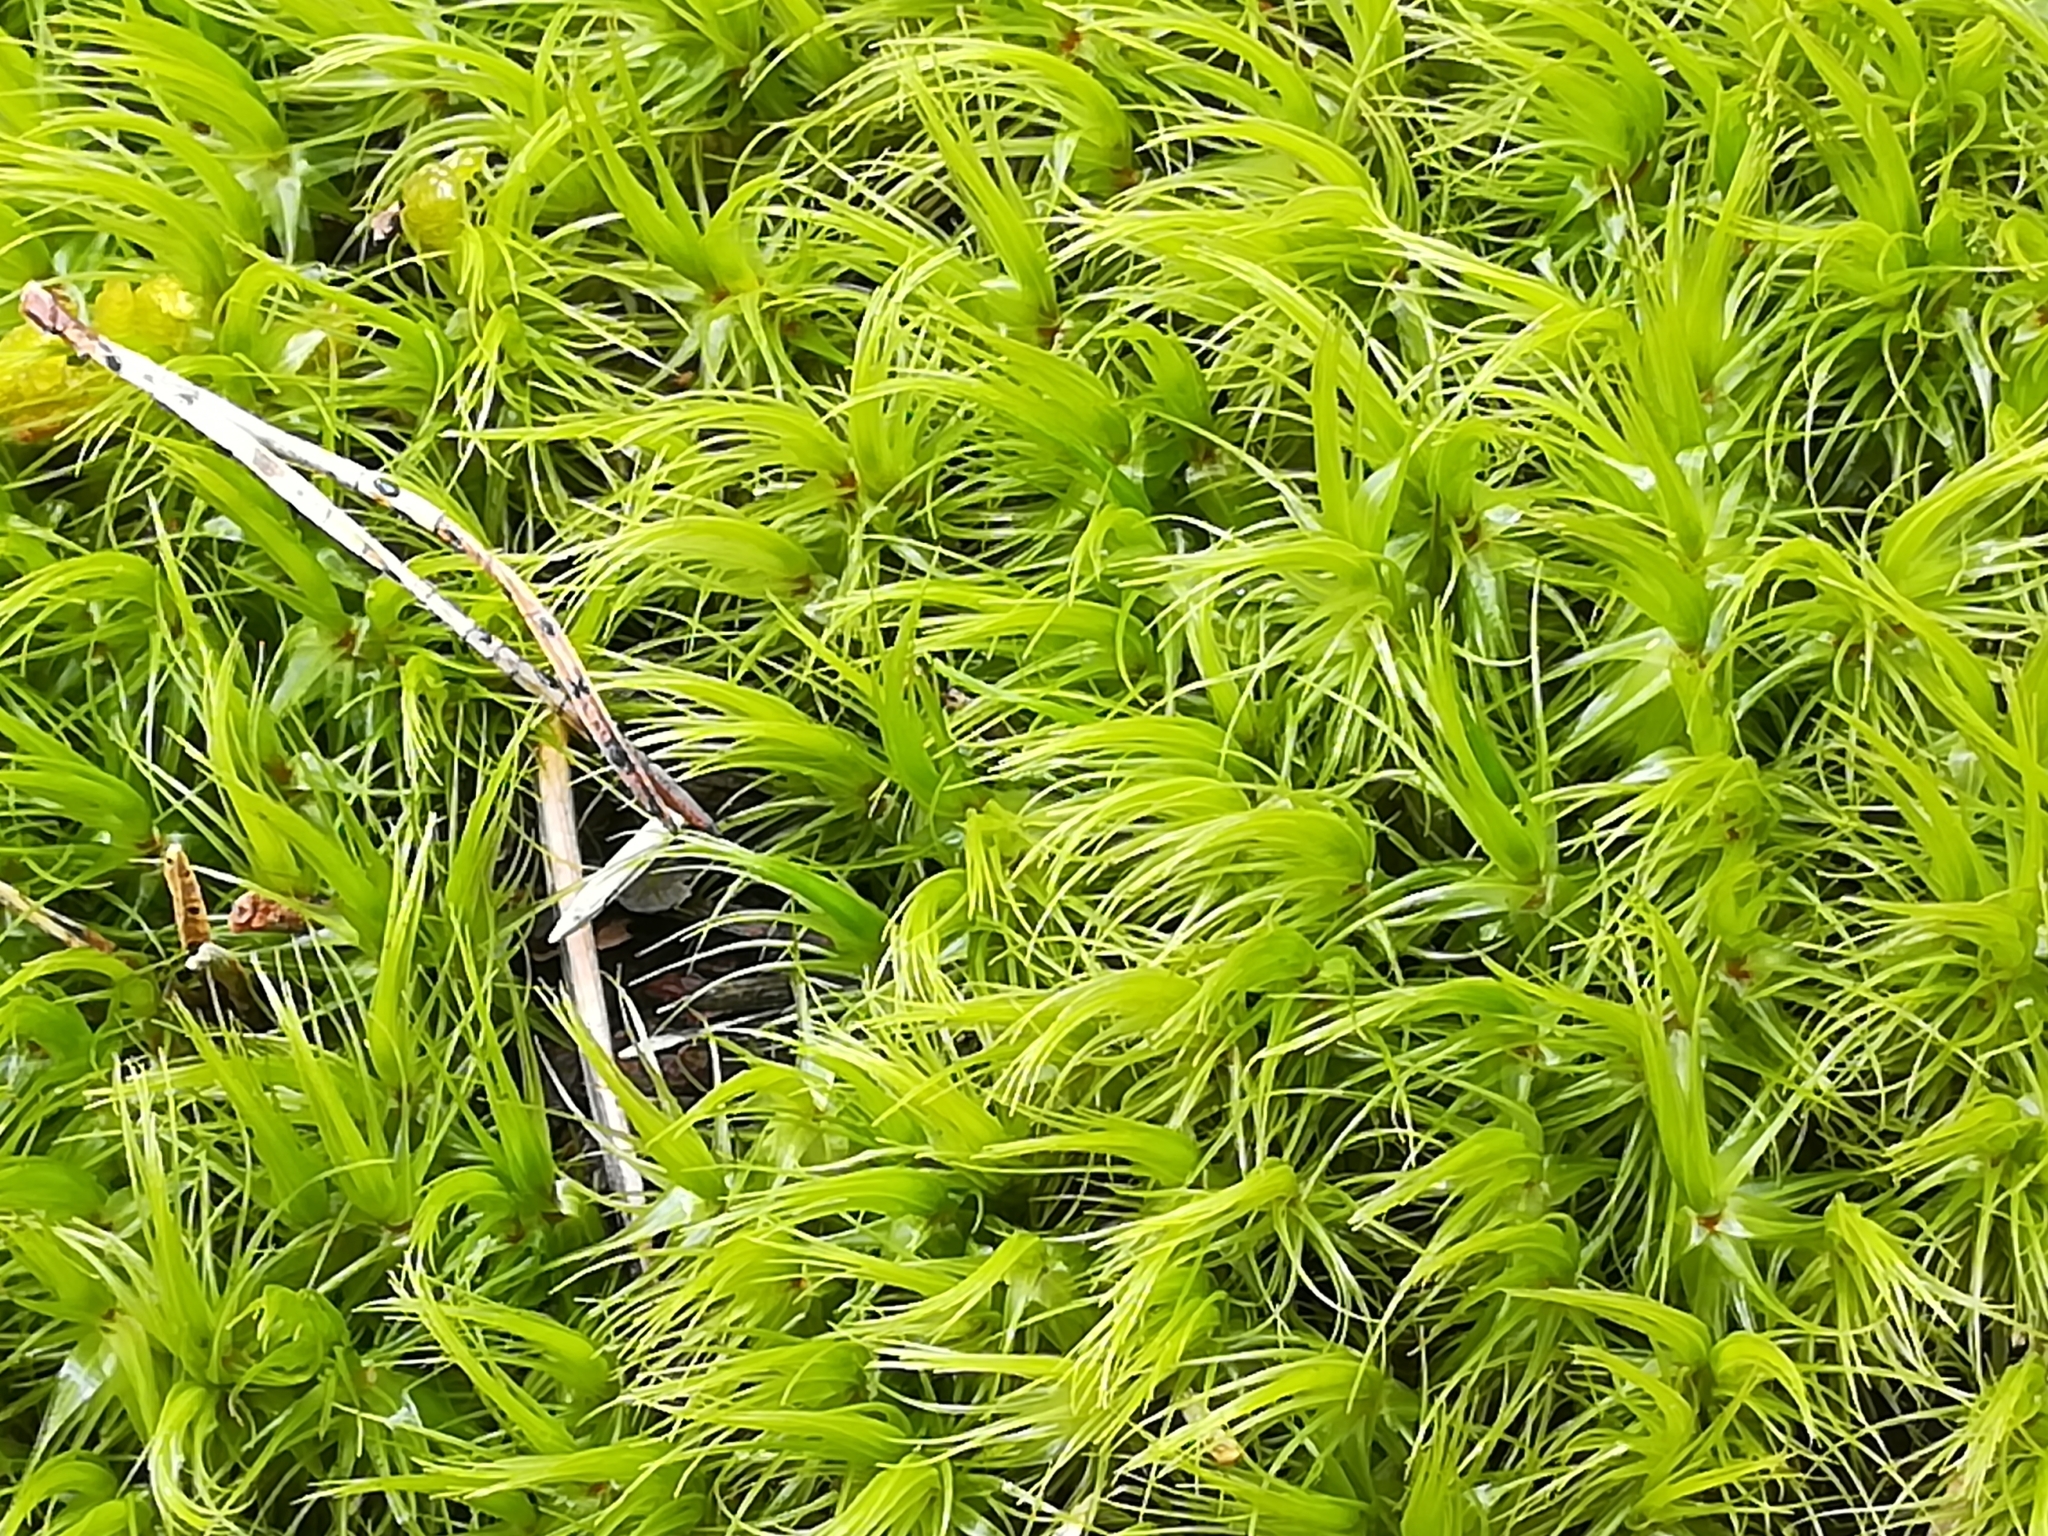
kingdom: Plantae
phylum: Bryophyta
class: Bryopsida
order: Dicranales
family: Dicranaceae
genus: Dicranum
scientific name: Dicranum scoparium
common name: Broom fork-moss
